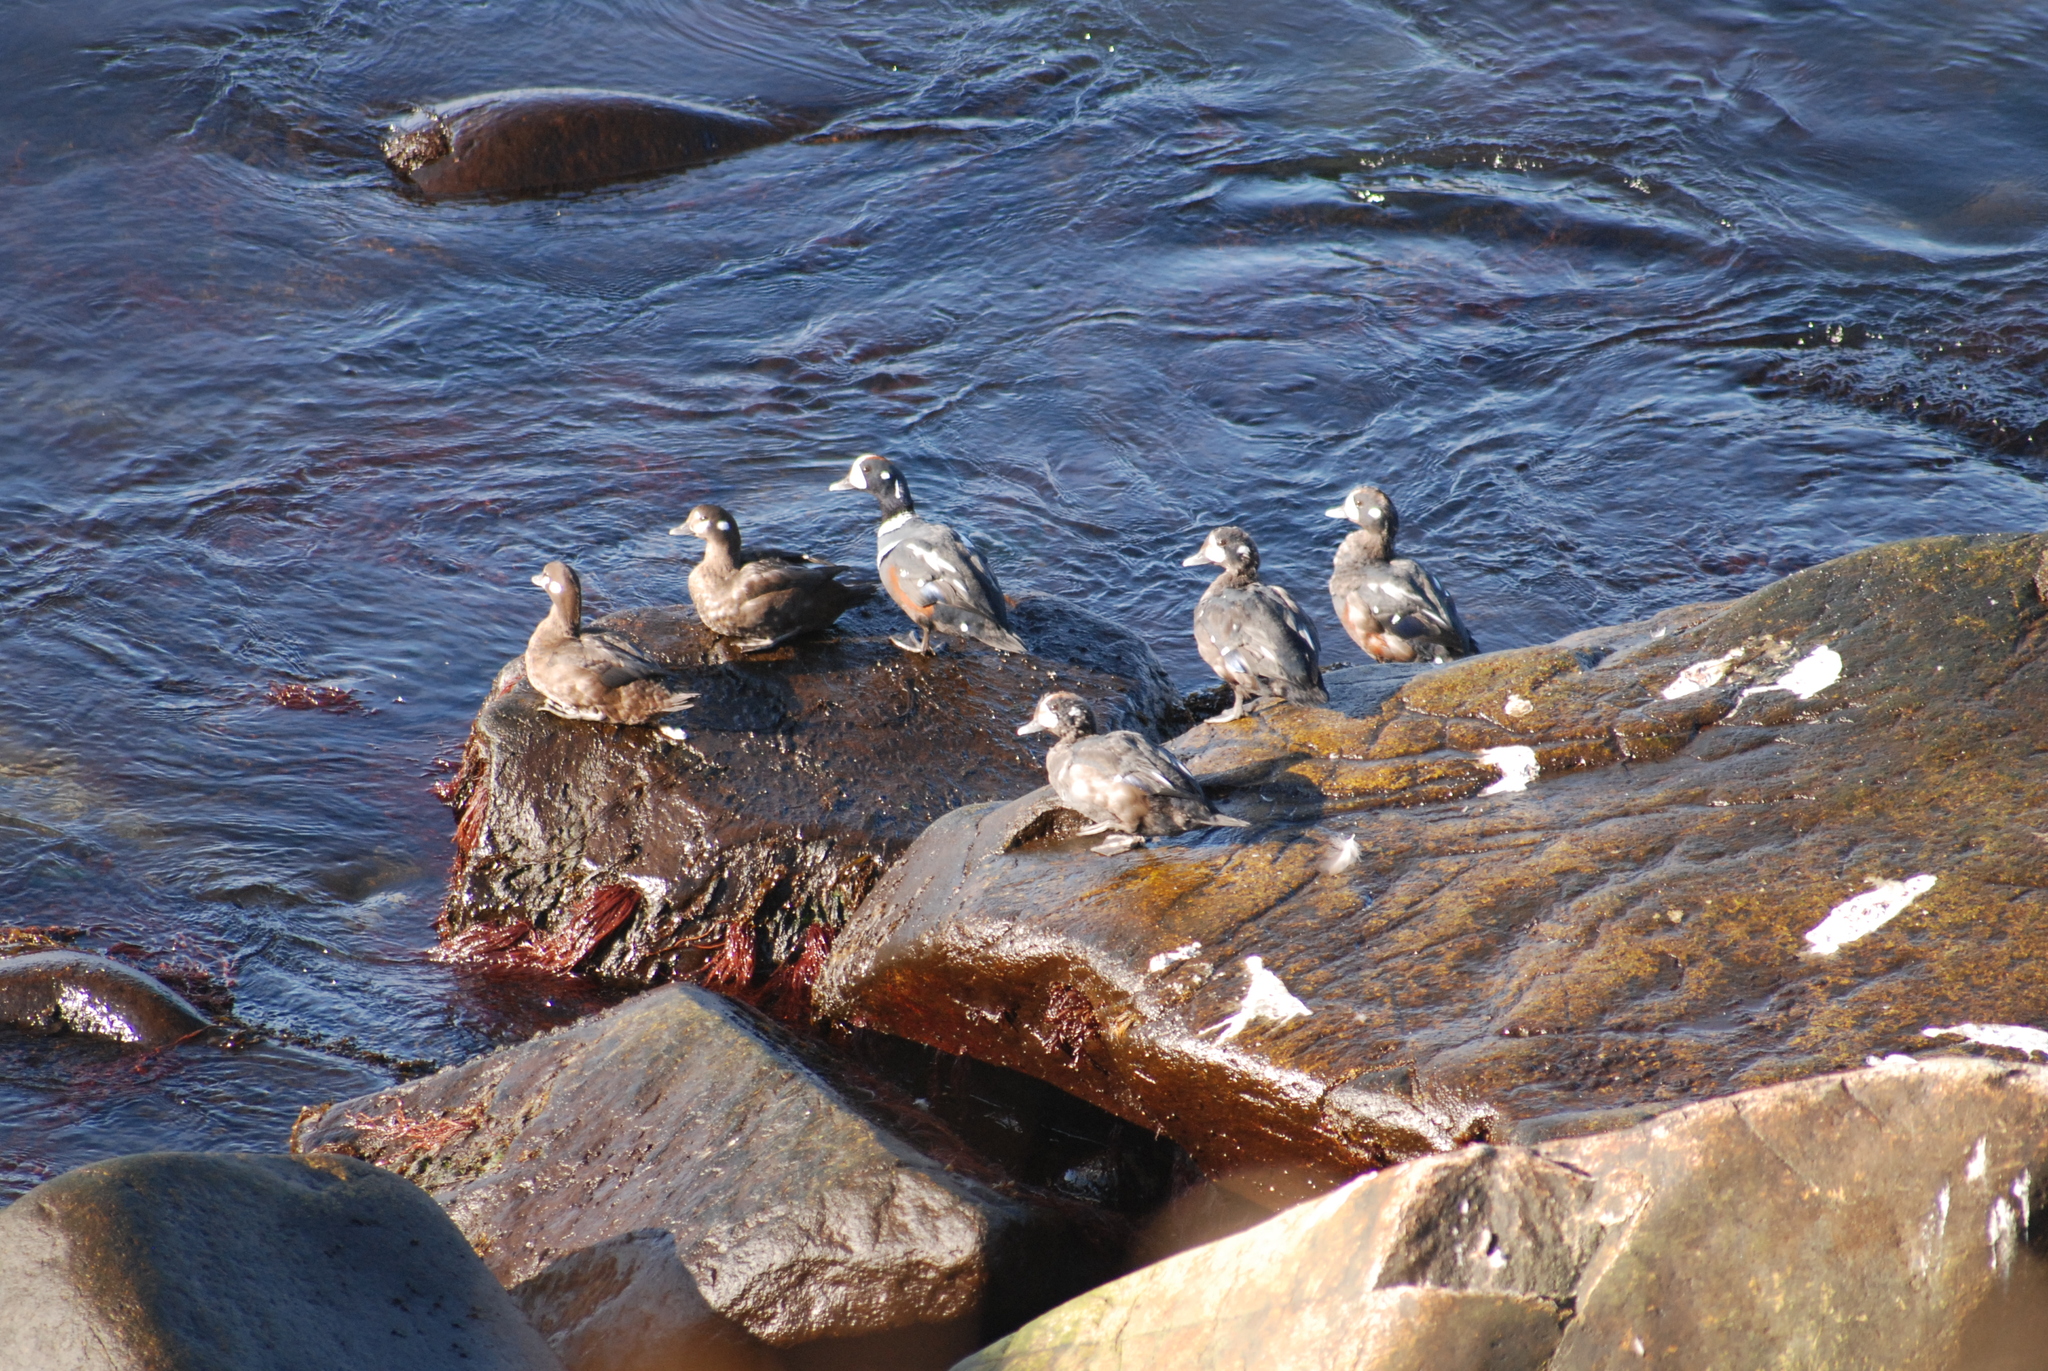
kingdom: Animalia
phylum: Chordata
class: Aves
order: Anseriformes
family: Anatidae
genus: Histrionicus
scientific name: Histrionicus histrionicus
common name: Harlequin duck
